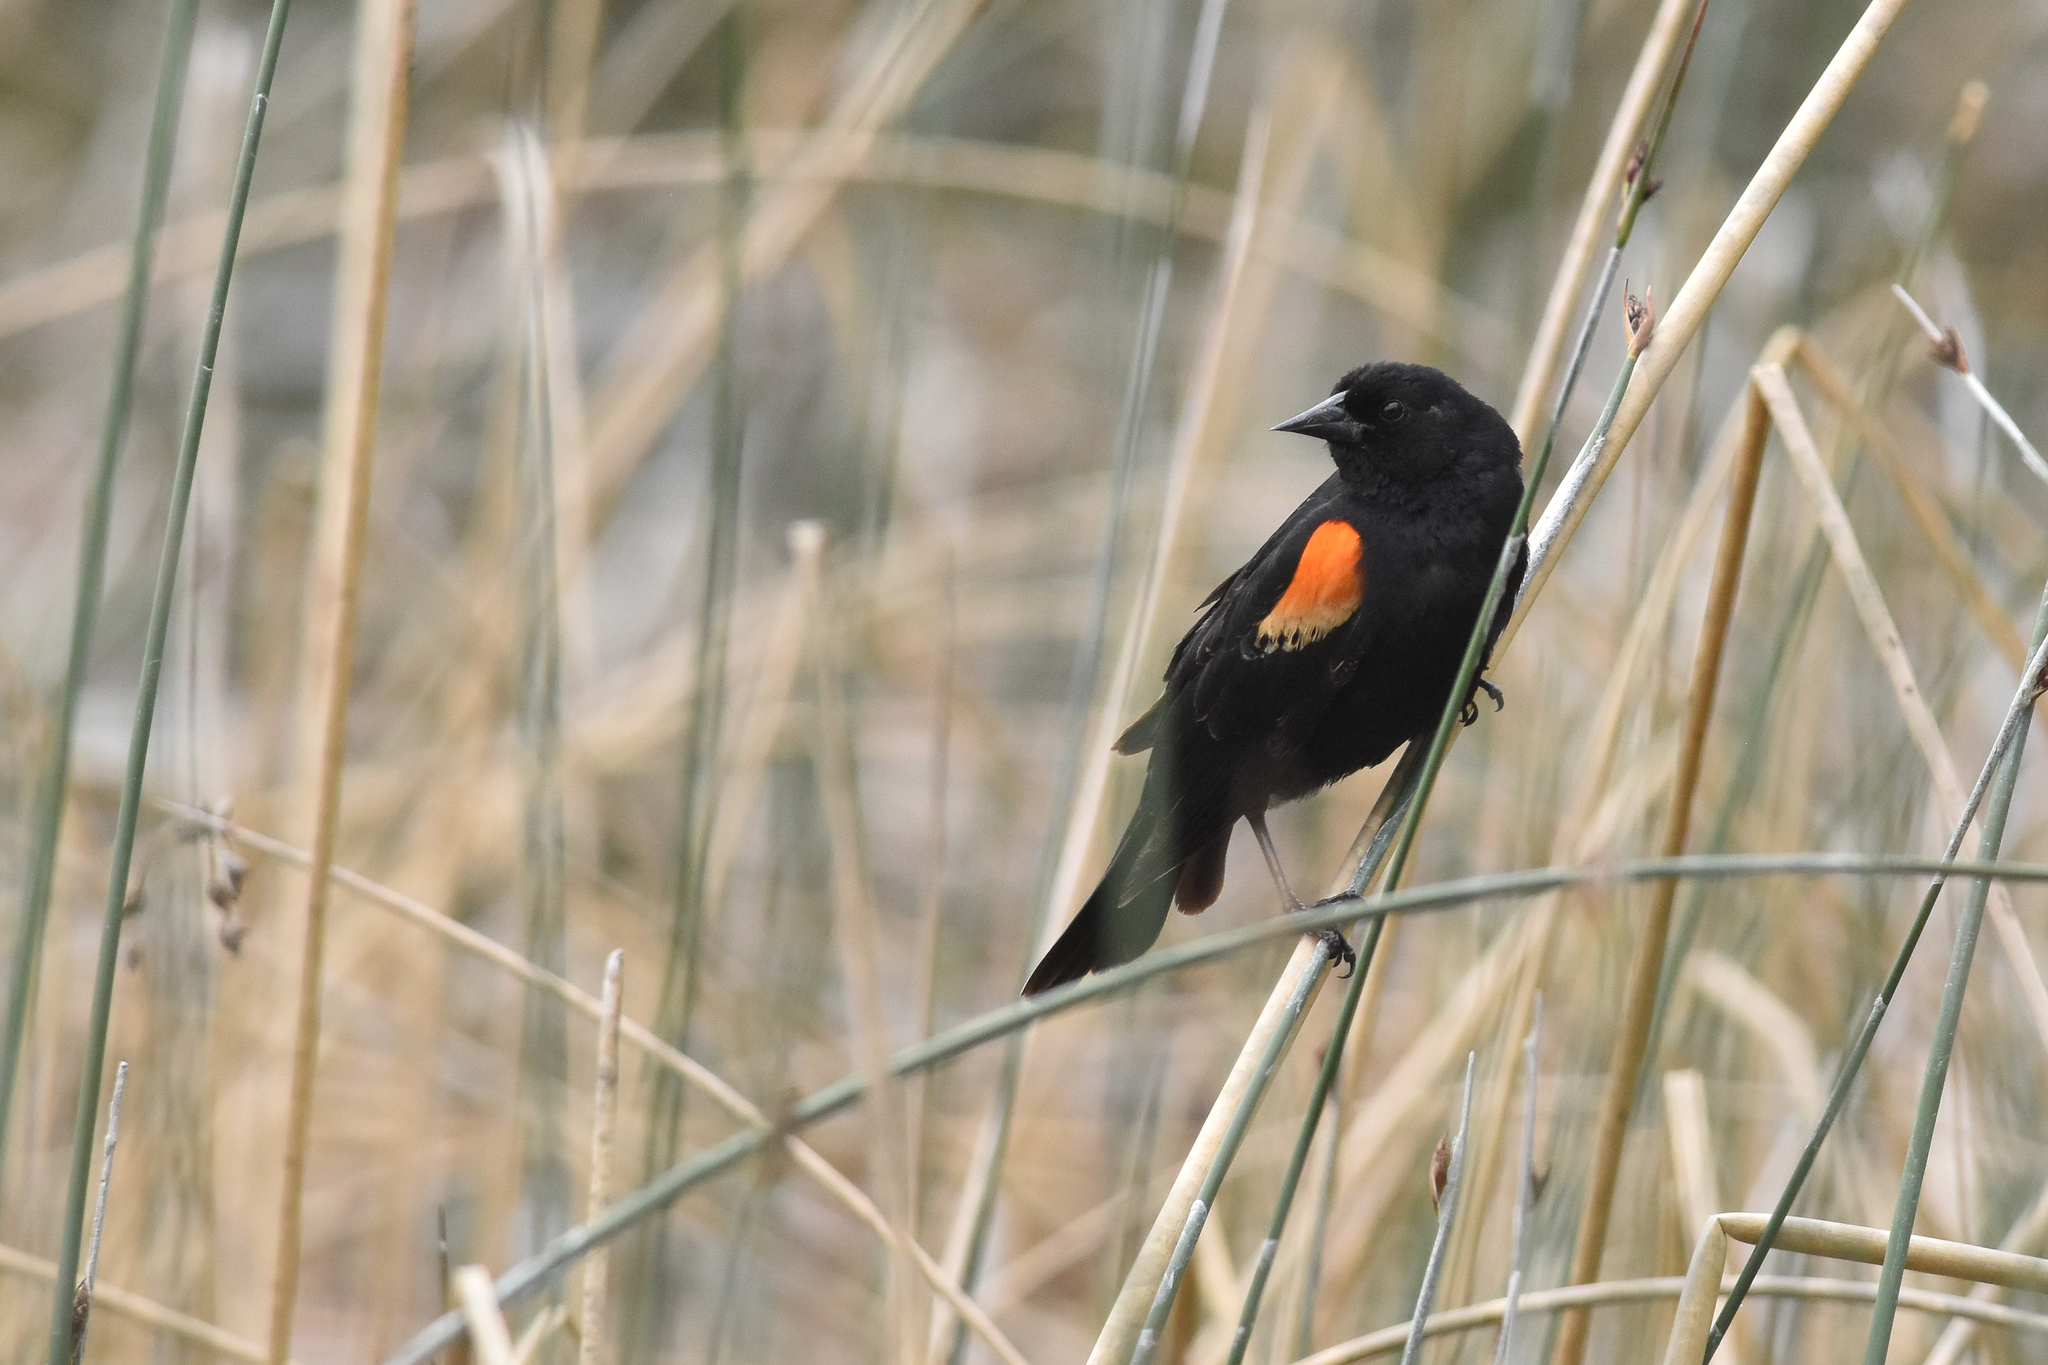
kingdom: Animalia
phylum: Chordata
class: Aves
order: Passeriformes
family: Icteridae
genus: Agelaius
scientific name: Agelaius phoeniceus
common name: Red-winged blackbird
